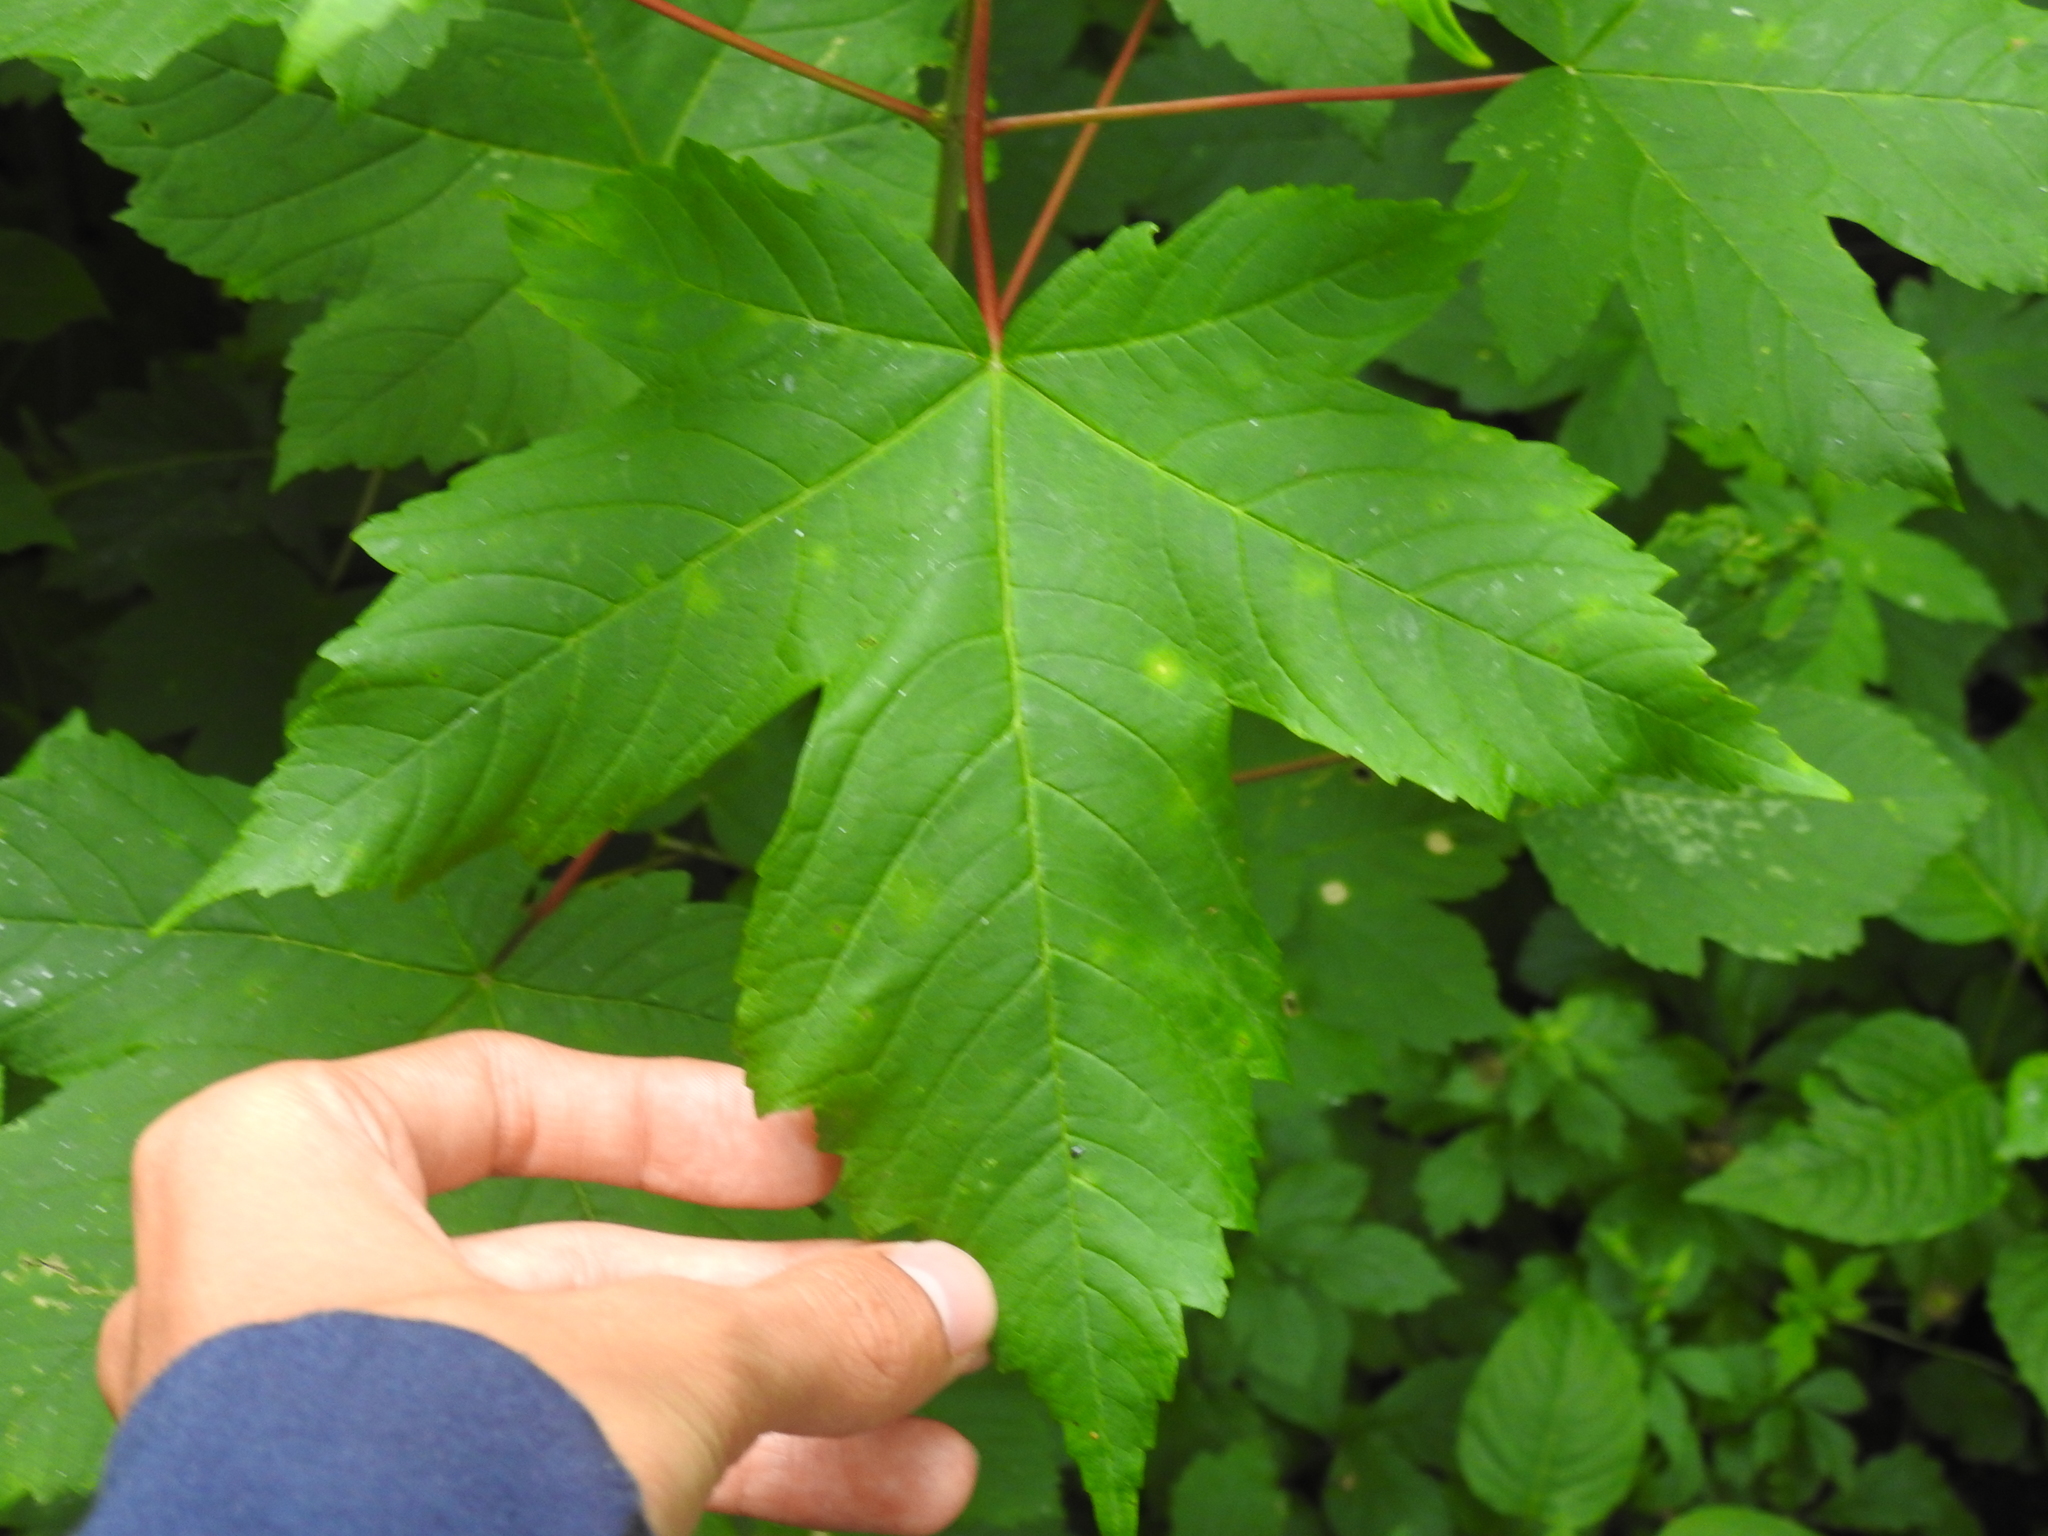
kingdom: Plantae
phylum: Tracheophyta
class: Magnoliopsida
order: Sapindales
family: Sapindaceae
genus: Acer
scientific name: Acer pseudoplatanus
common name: Sycamore
